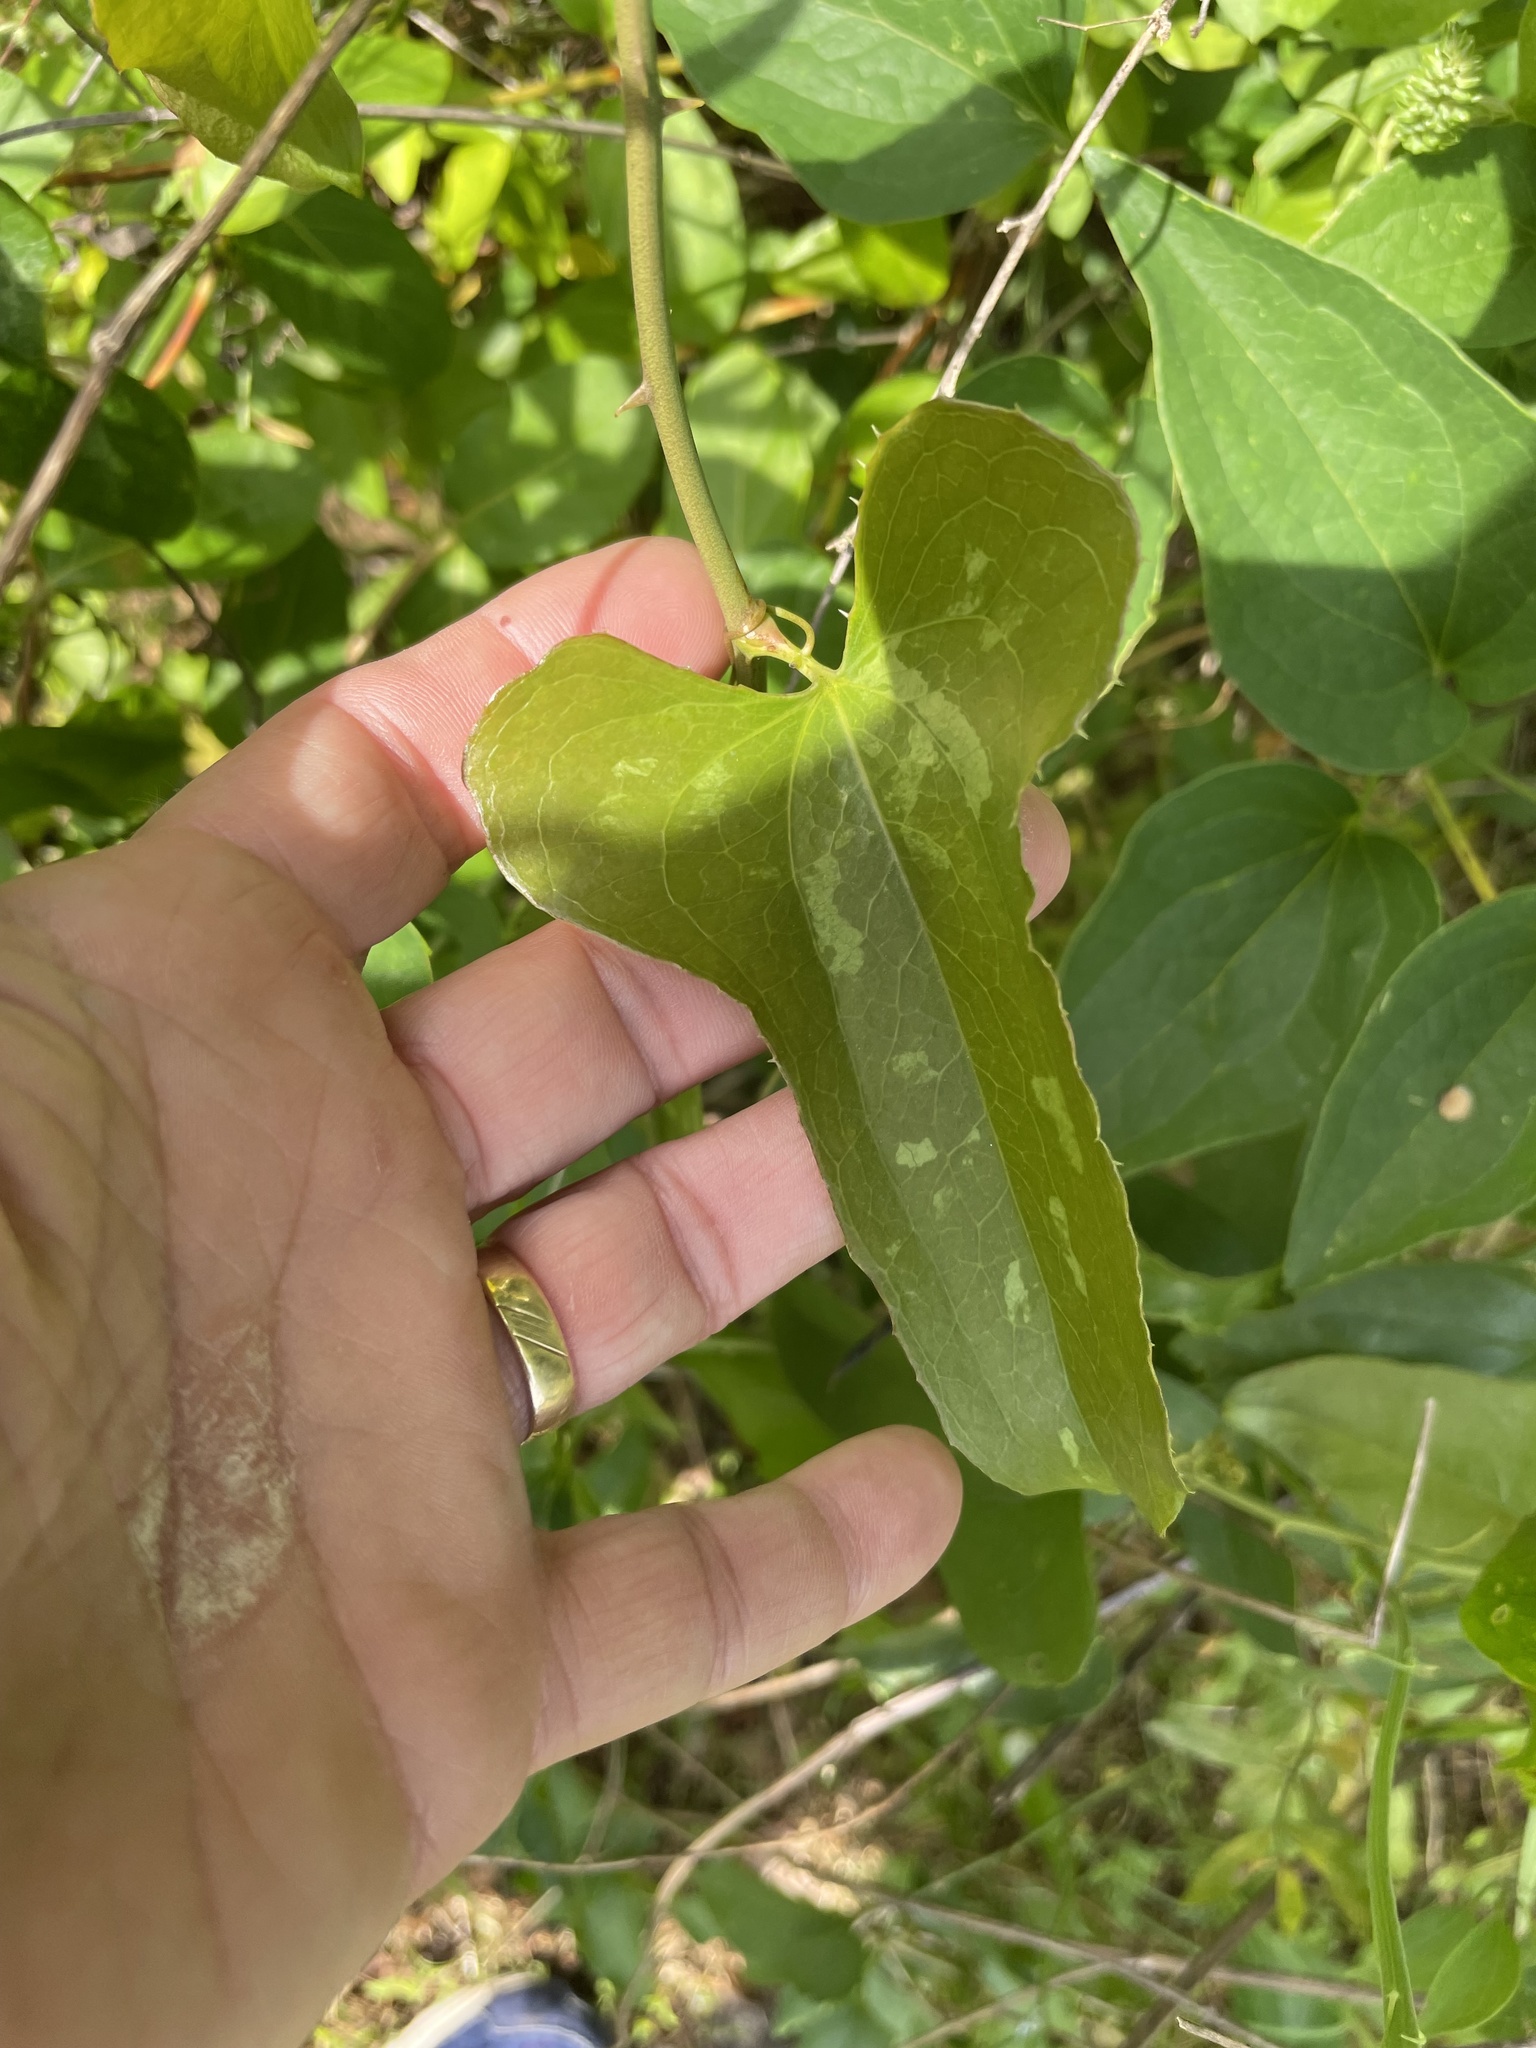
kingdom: Plantae
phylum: Tracheophyta
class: Liliopsida
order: Liliales
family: Smilacaceae
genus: Smilax
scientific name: Smilax bona-nox
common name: Catbrier
